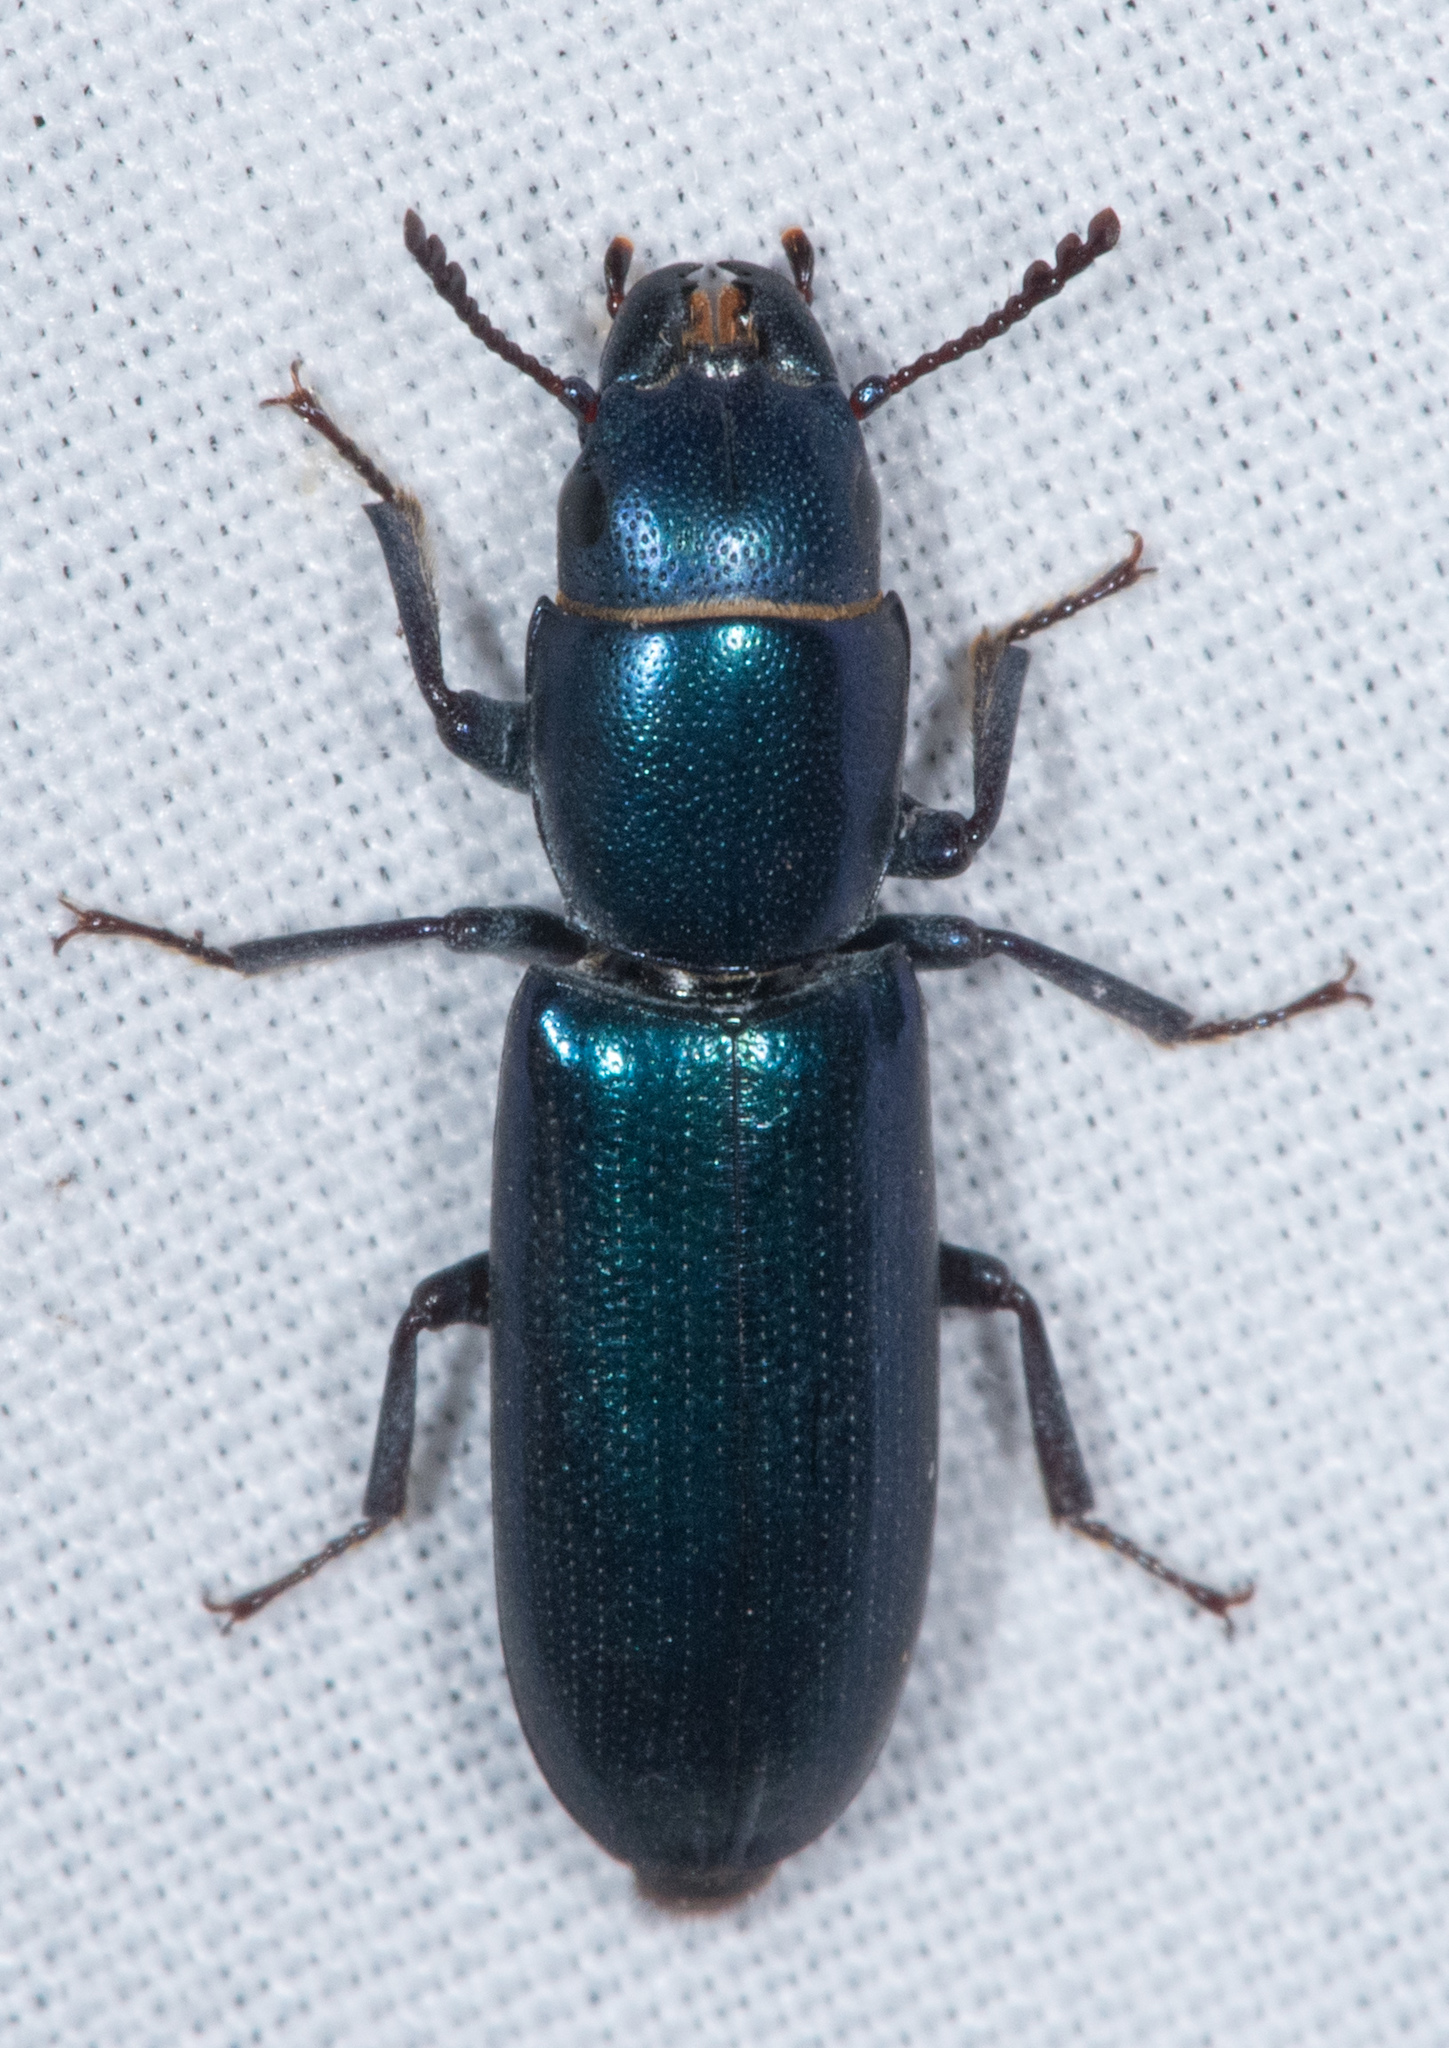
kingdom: Animalia
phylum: Arthropoda
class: Insecta
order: Coleoptera
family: Trogossitidae
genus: Temnoscheila
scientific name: Temnoscheila chlorodia
